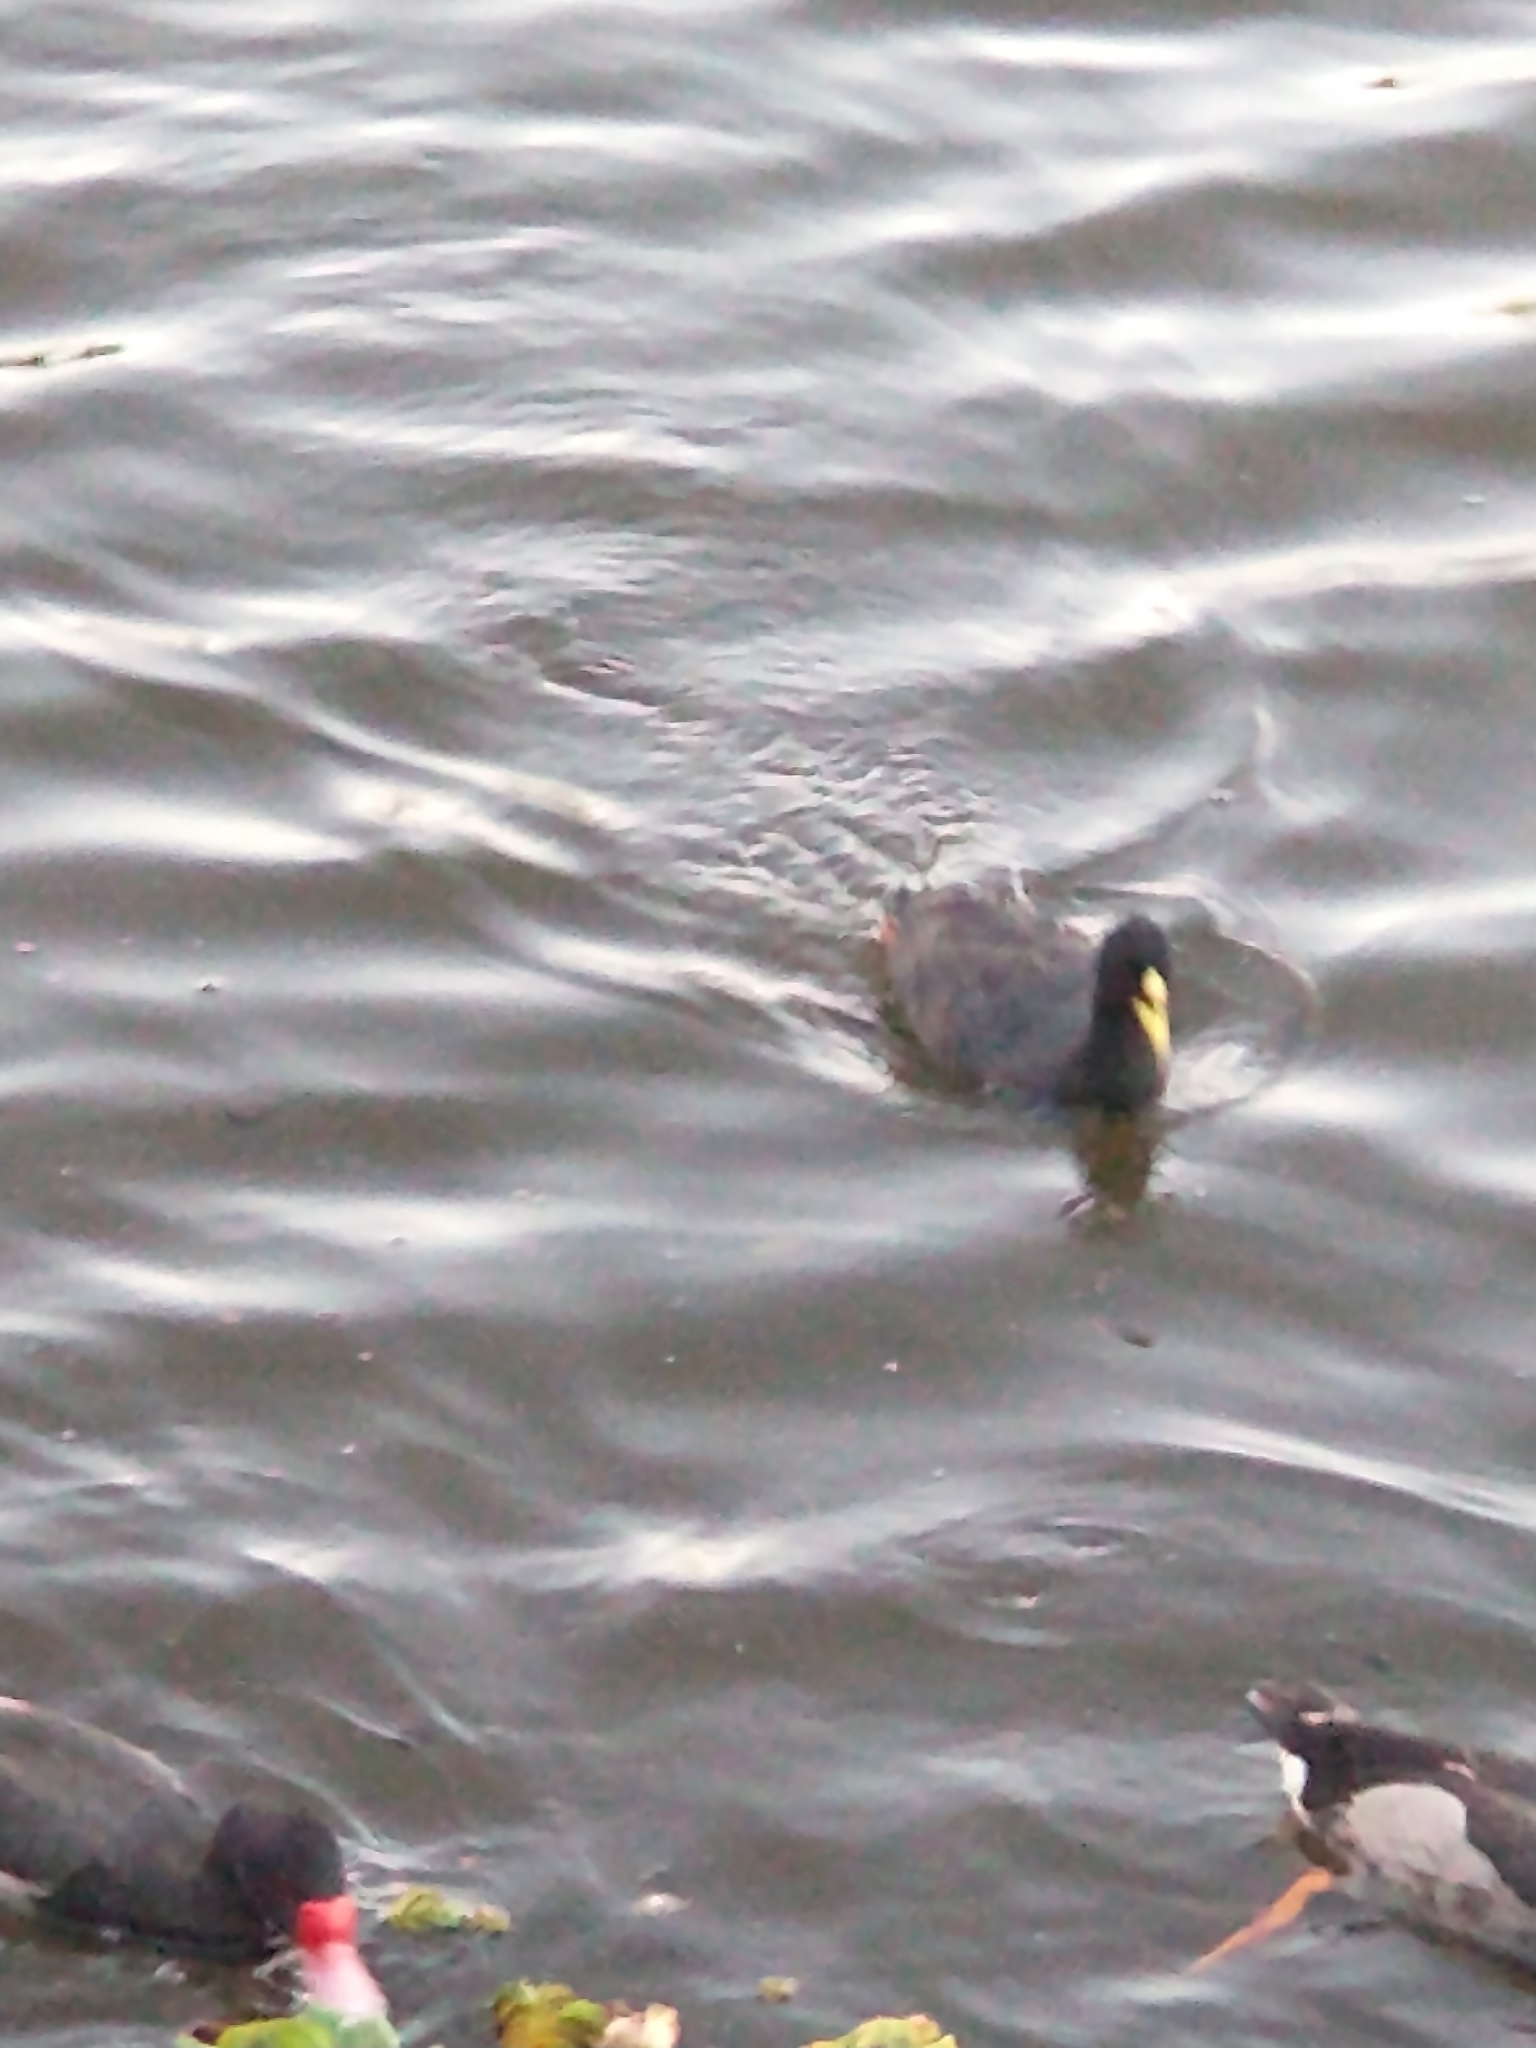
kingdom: Animalia
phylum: Chordata
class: Aves
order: Gruiformes
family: Rallidae
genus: Fulica
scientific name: Fulica armillata
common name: Red-gartered coot
